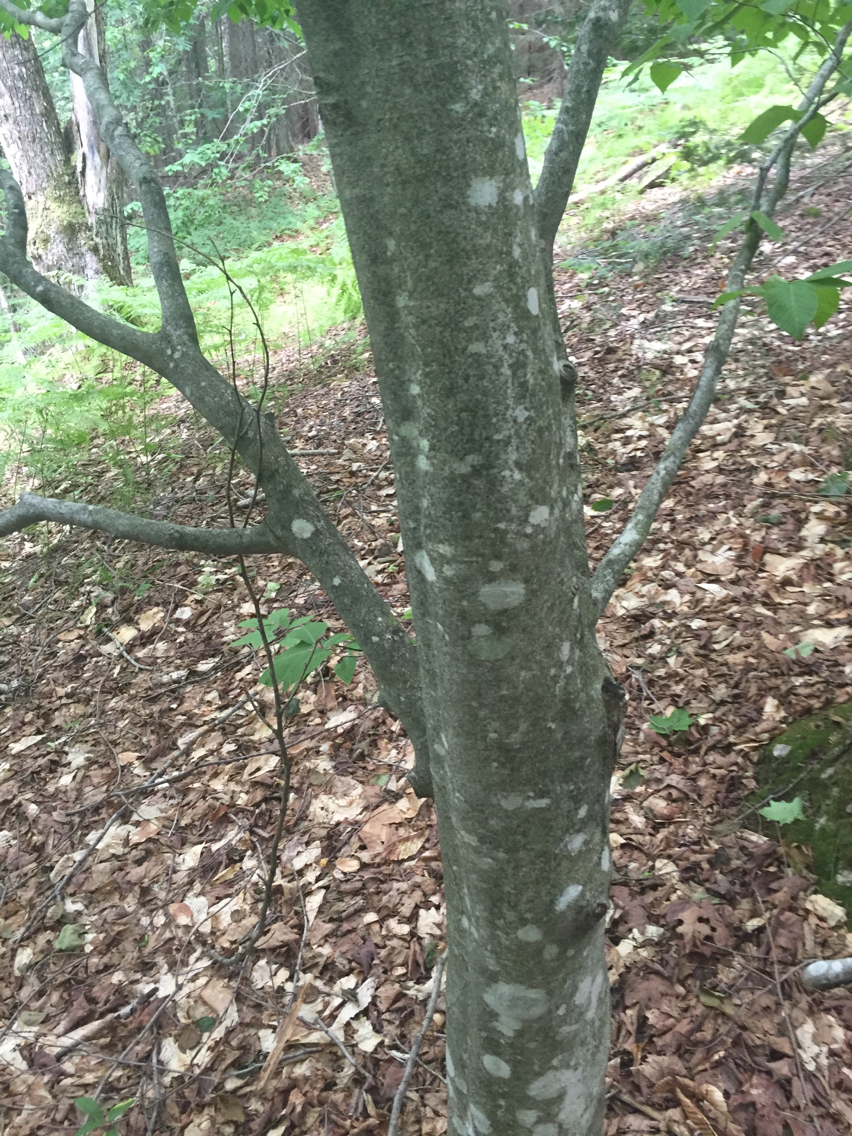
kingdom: Plantae
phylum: Tracheophyta
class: Magnoliopsida
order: Fagales
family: Fagaceae
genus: Fagus
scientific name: Fagus grandifolia
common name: American beech
